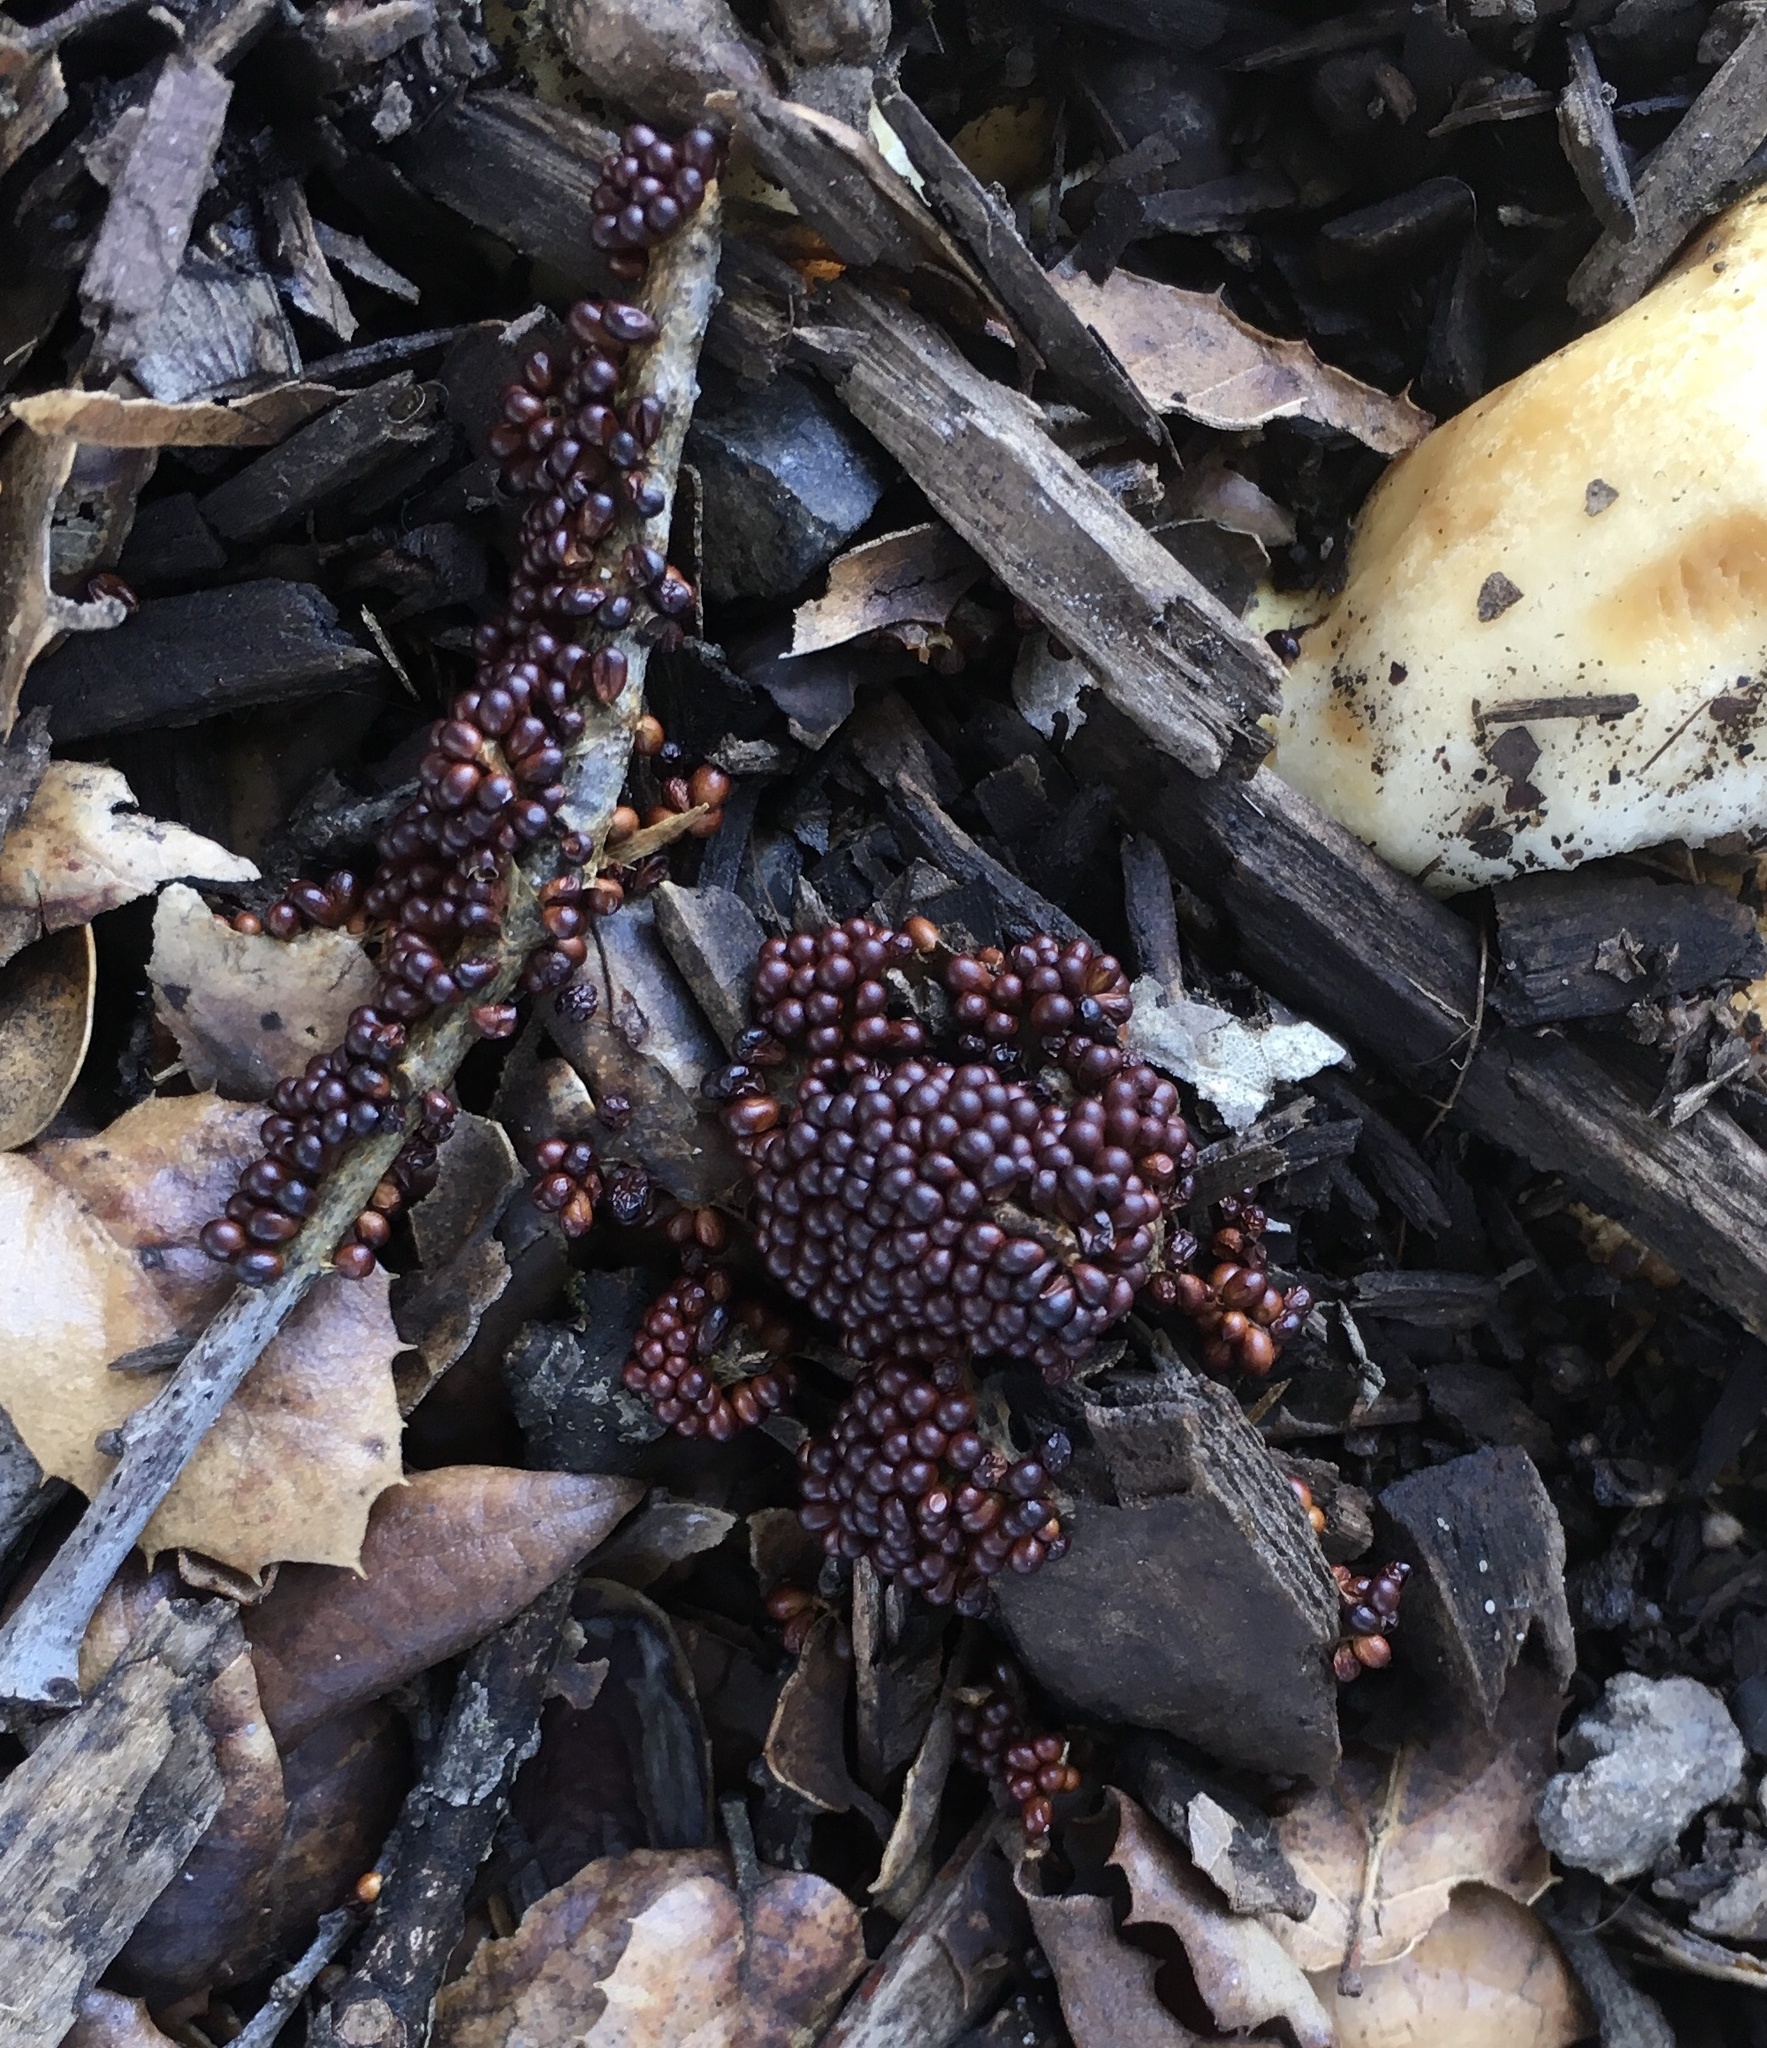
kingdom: Protozoa
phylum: Mycetozoa
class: Myxomycetes
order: Physarales
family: Physaraceae
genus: Leocarpus
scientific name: Leocarpus fragilis
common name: Insect-egg slime
